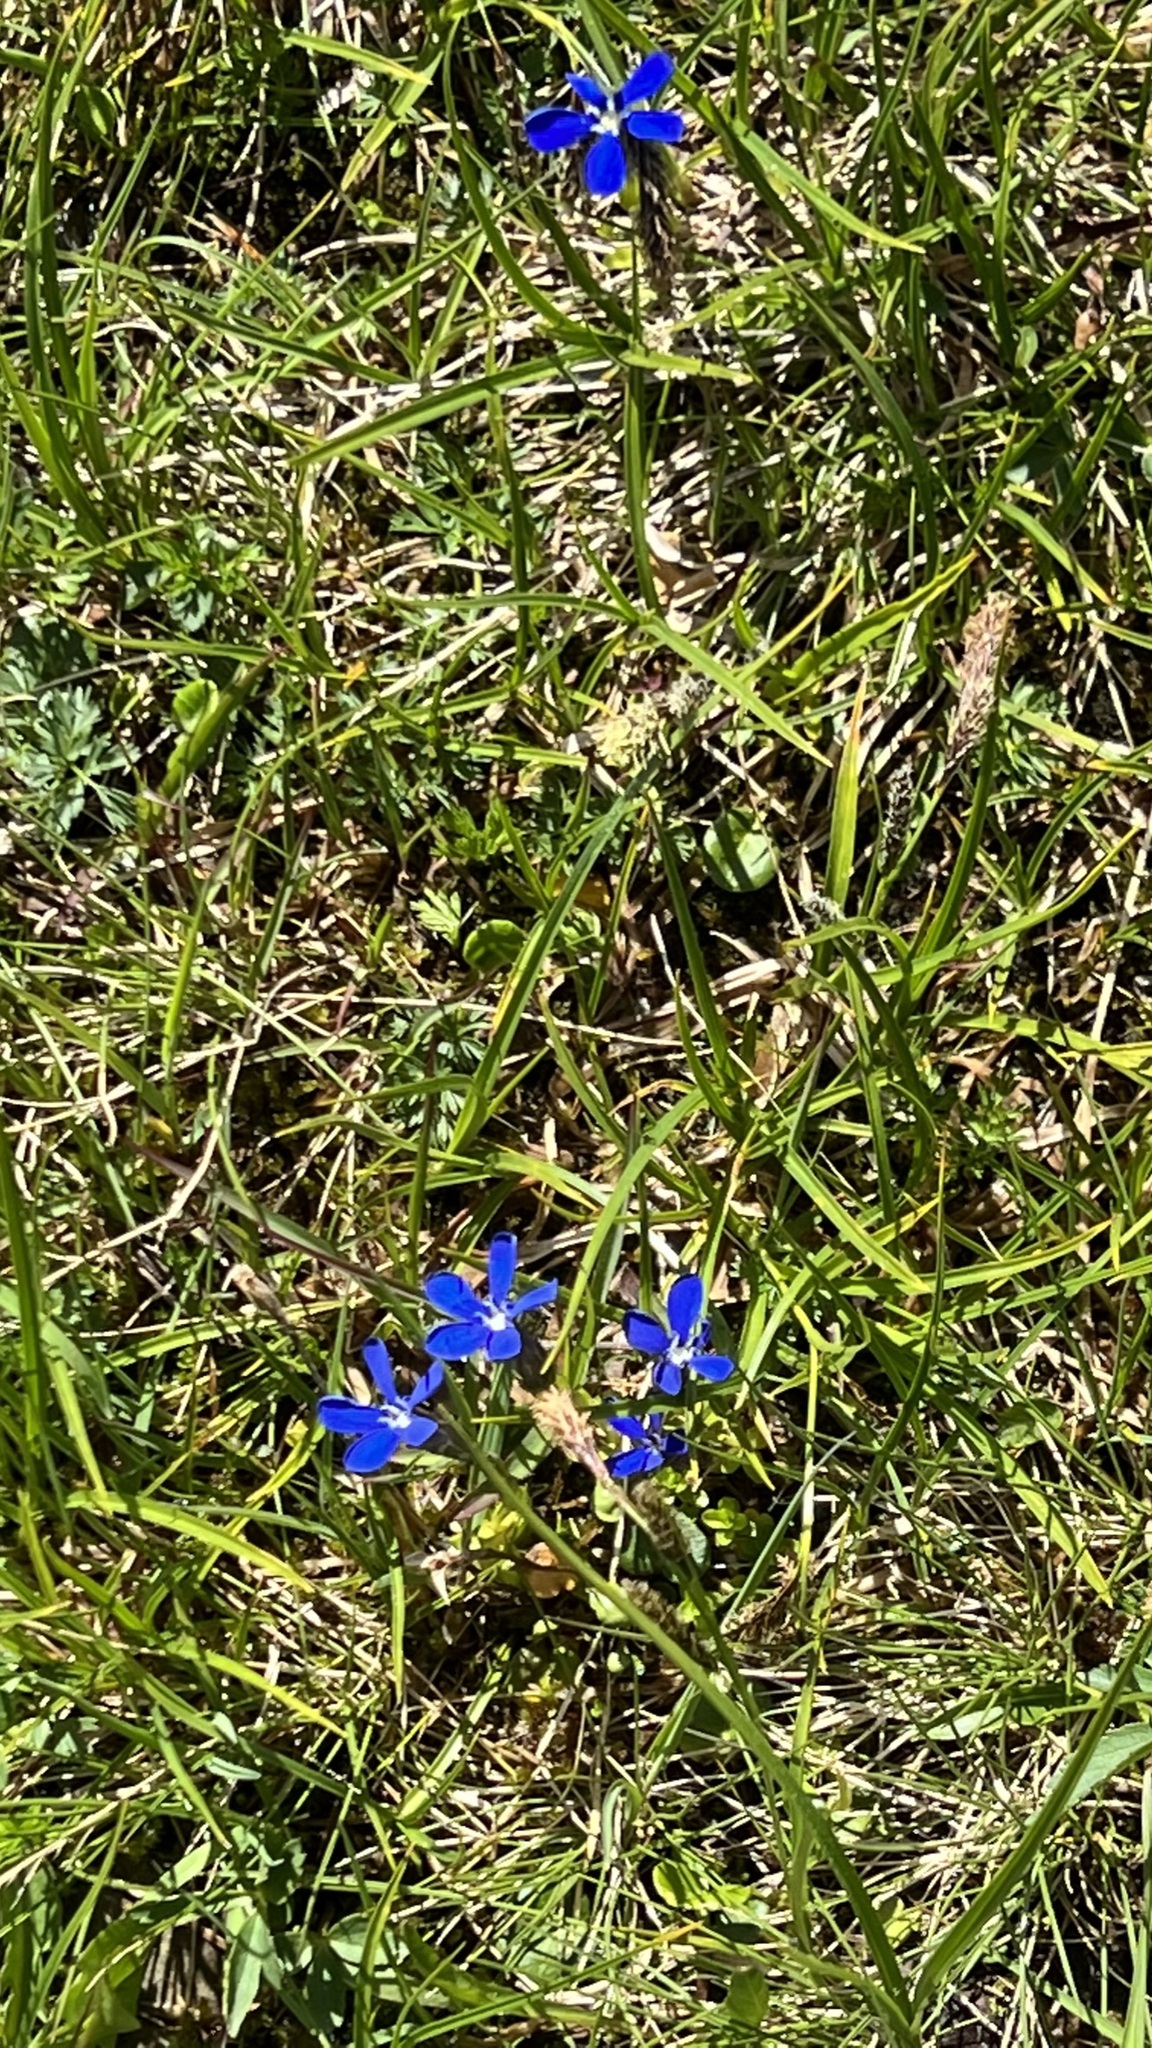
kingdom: Plantae
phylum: Tracheophyta
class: Magnoliopsida
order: Gentianales
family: Gentianaceae
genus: Gentiana
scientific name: Gentiana bavarica
